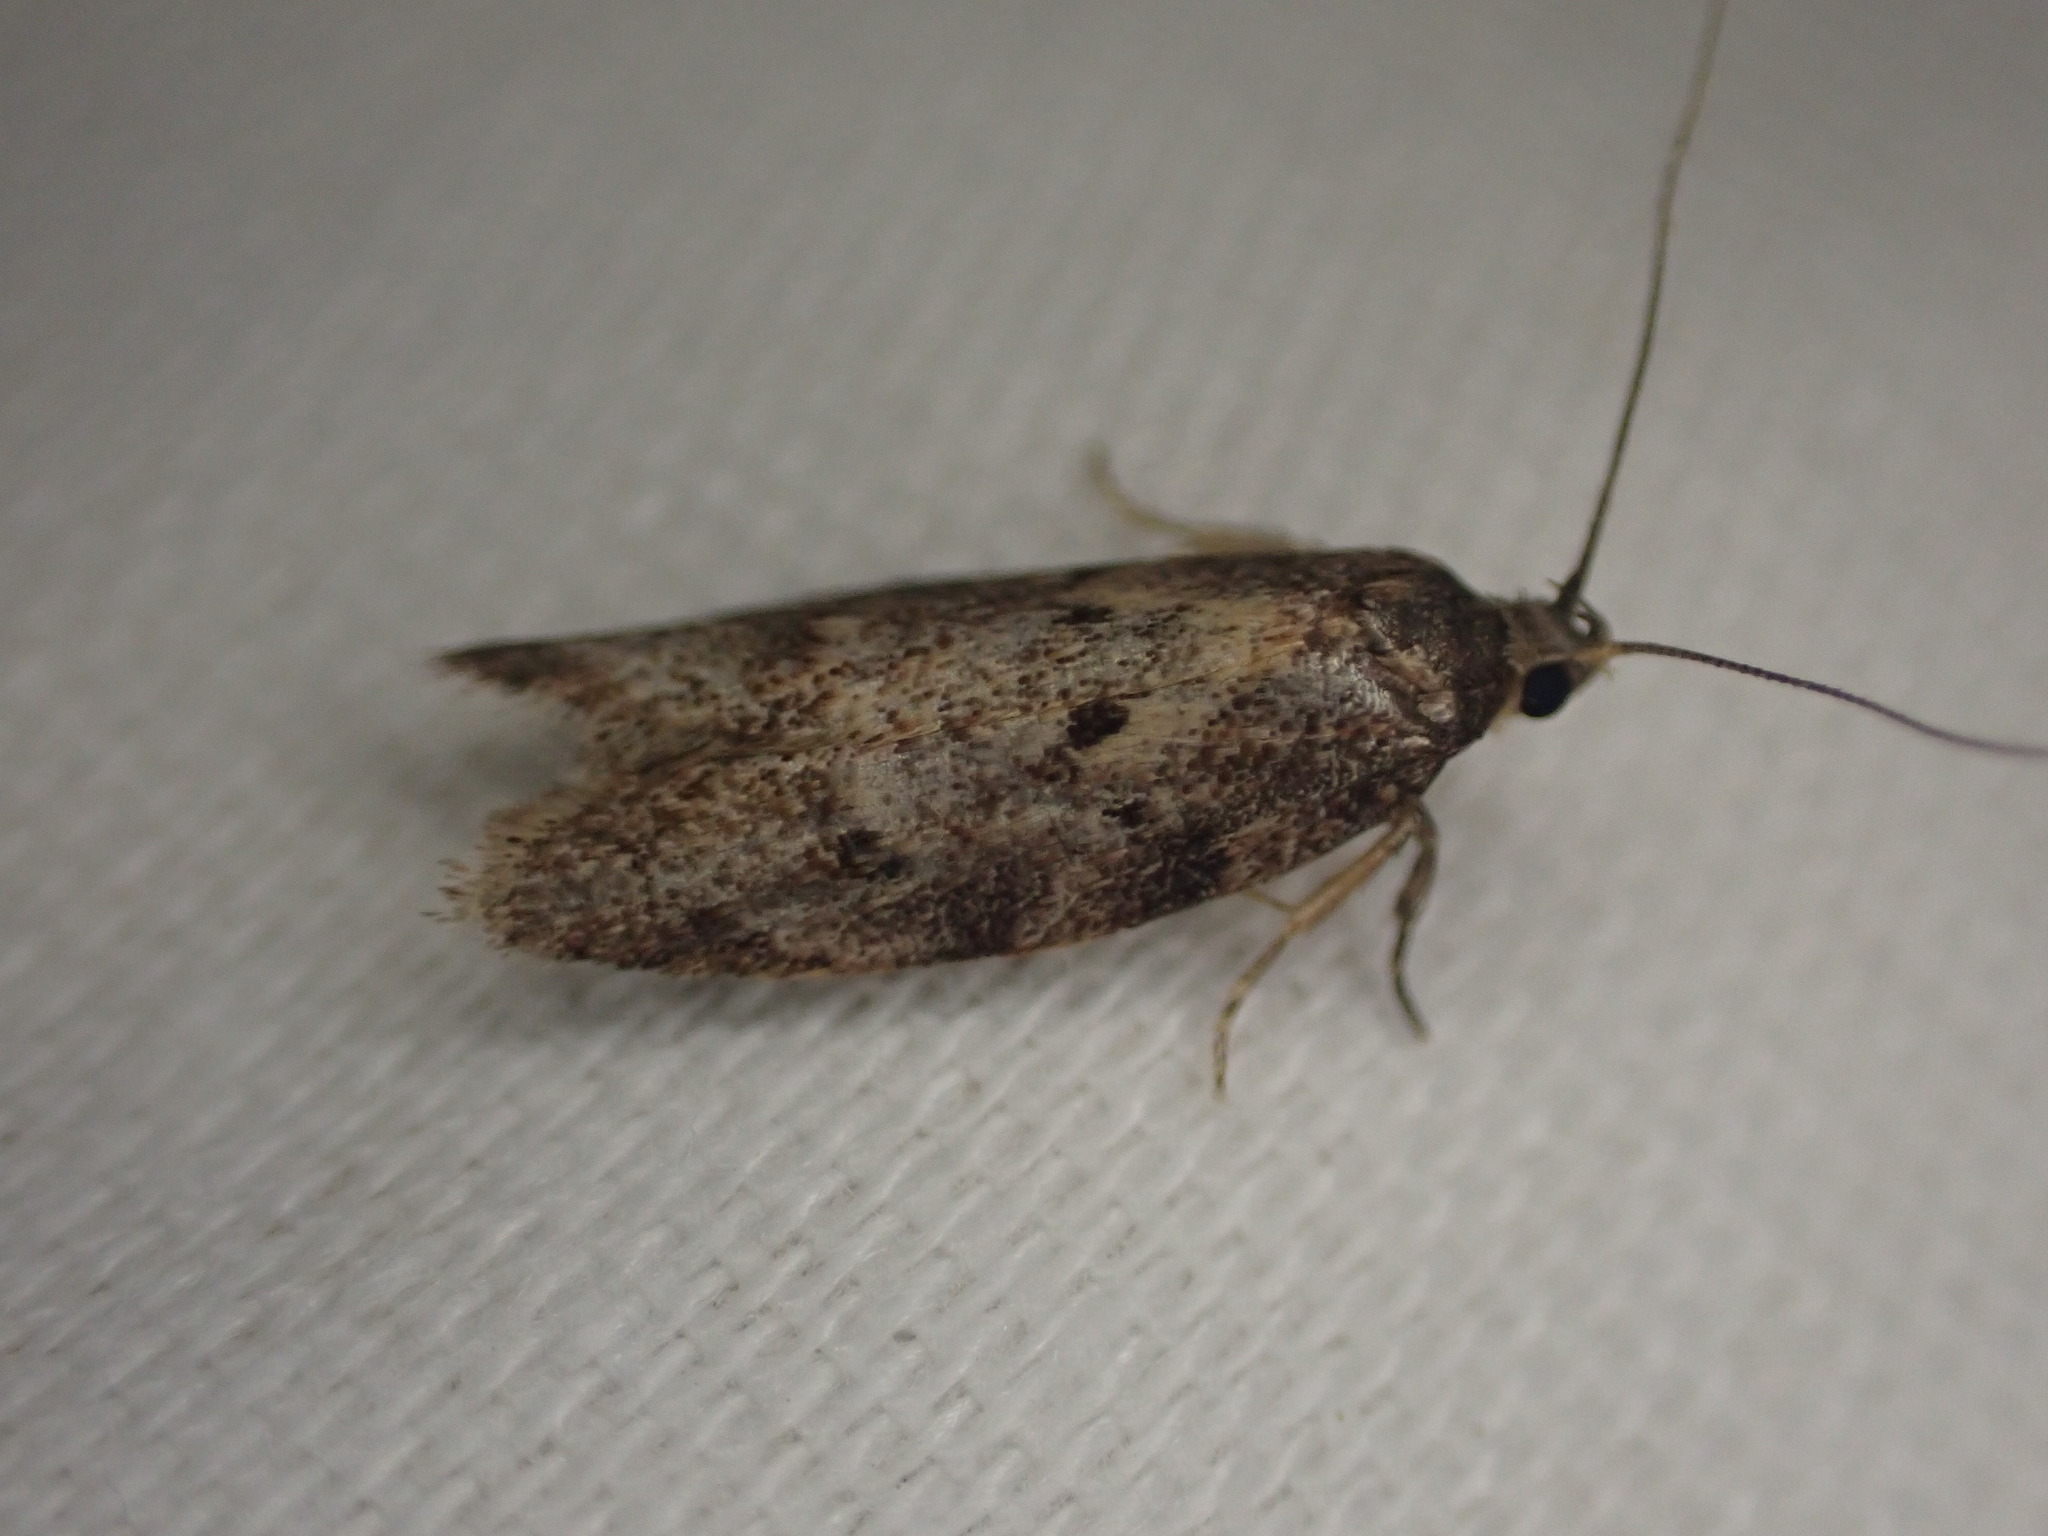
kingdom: Animalia
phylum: Arthropoda
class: Insecta
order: Lepidoptera
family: Oecophoridae
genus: Trachypepla
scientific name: Trachypepla photinella
